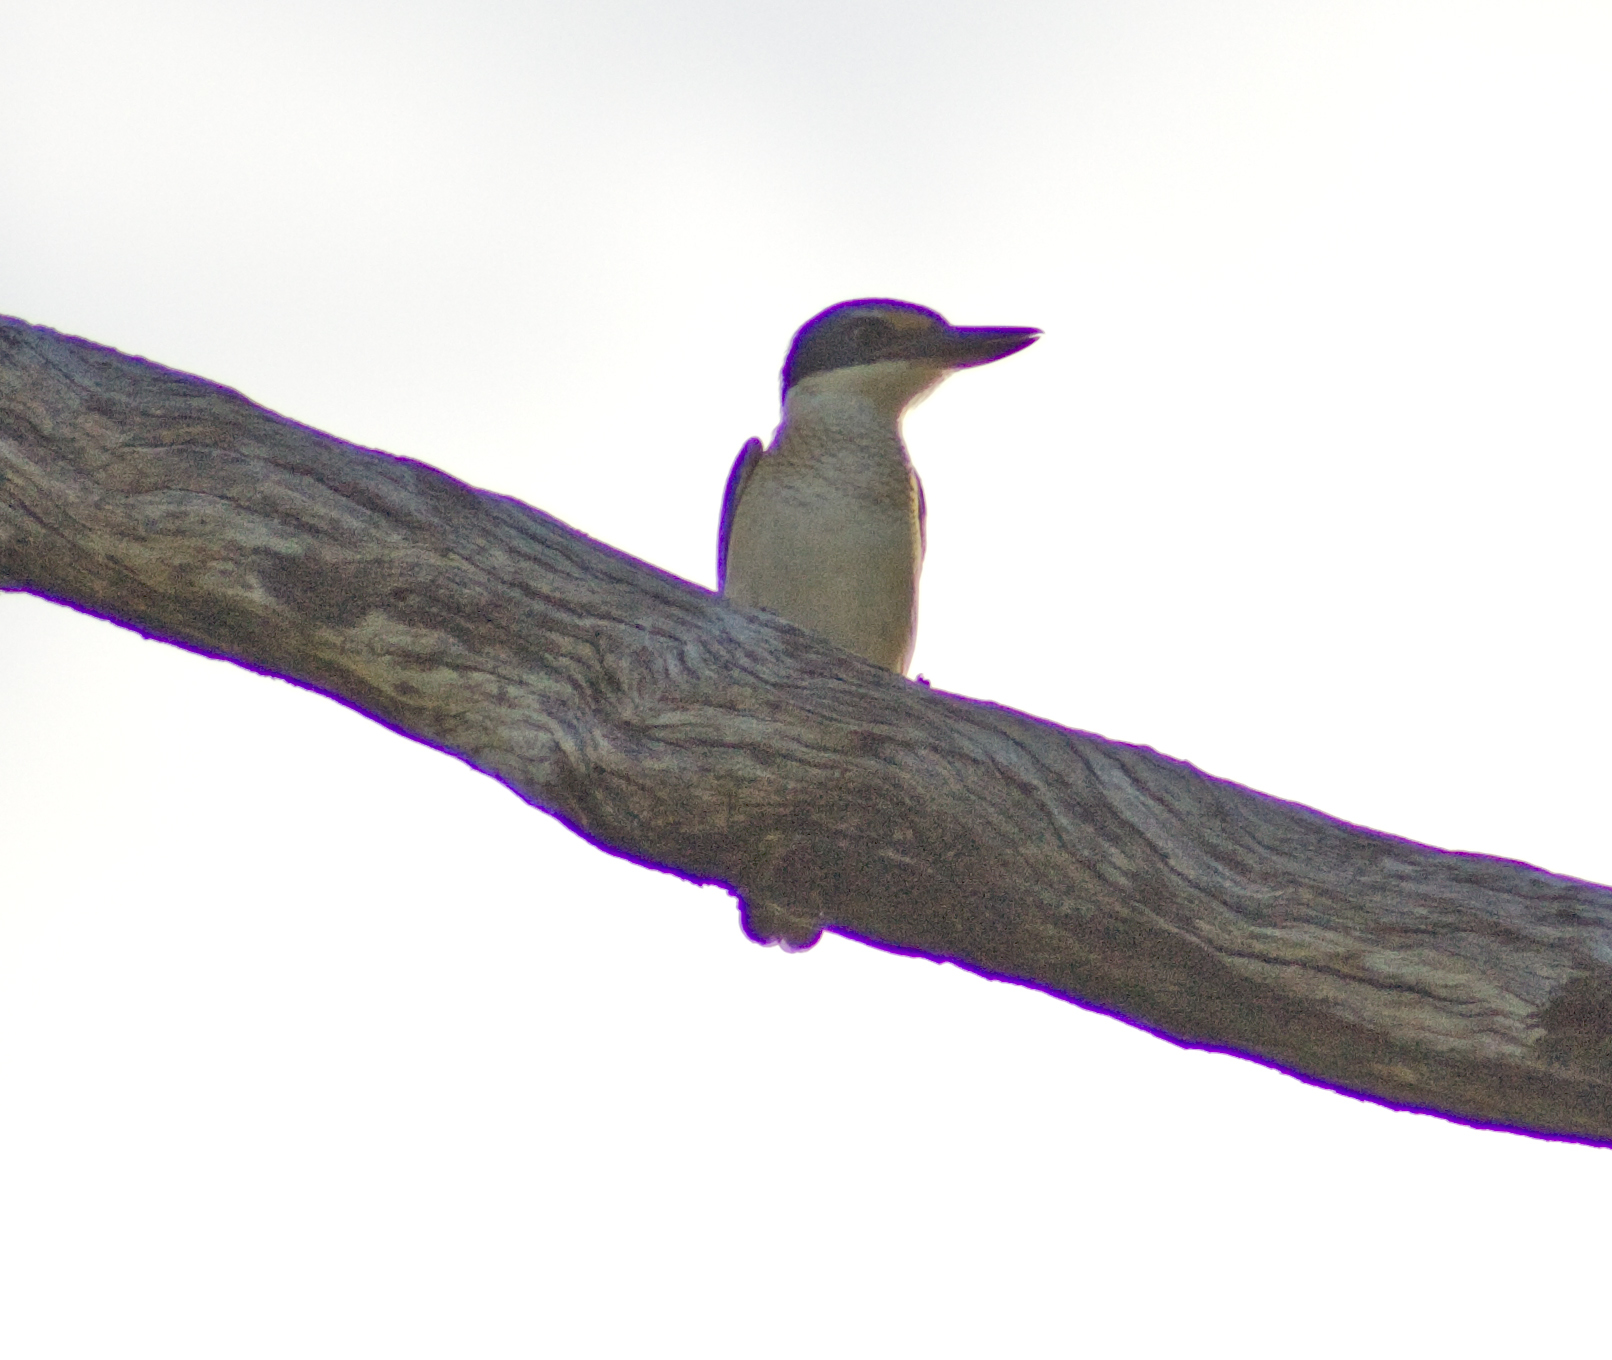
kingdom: Animalia
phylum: Chordata
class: Aves
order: Coraciiformes
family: Alcedinidae
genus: Todiramphus
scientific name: Todiramphus sanctus
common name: Sacred kingfisher
